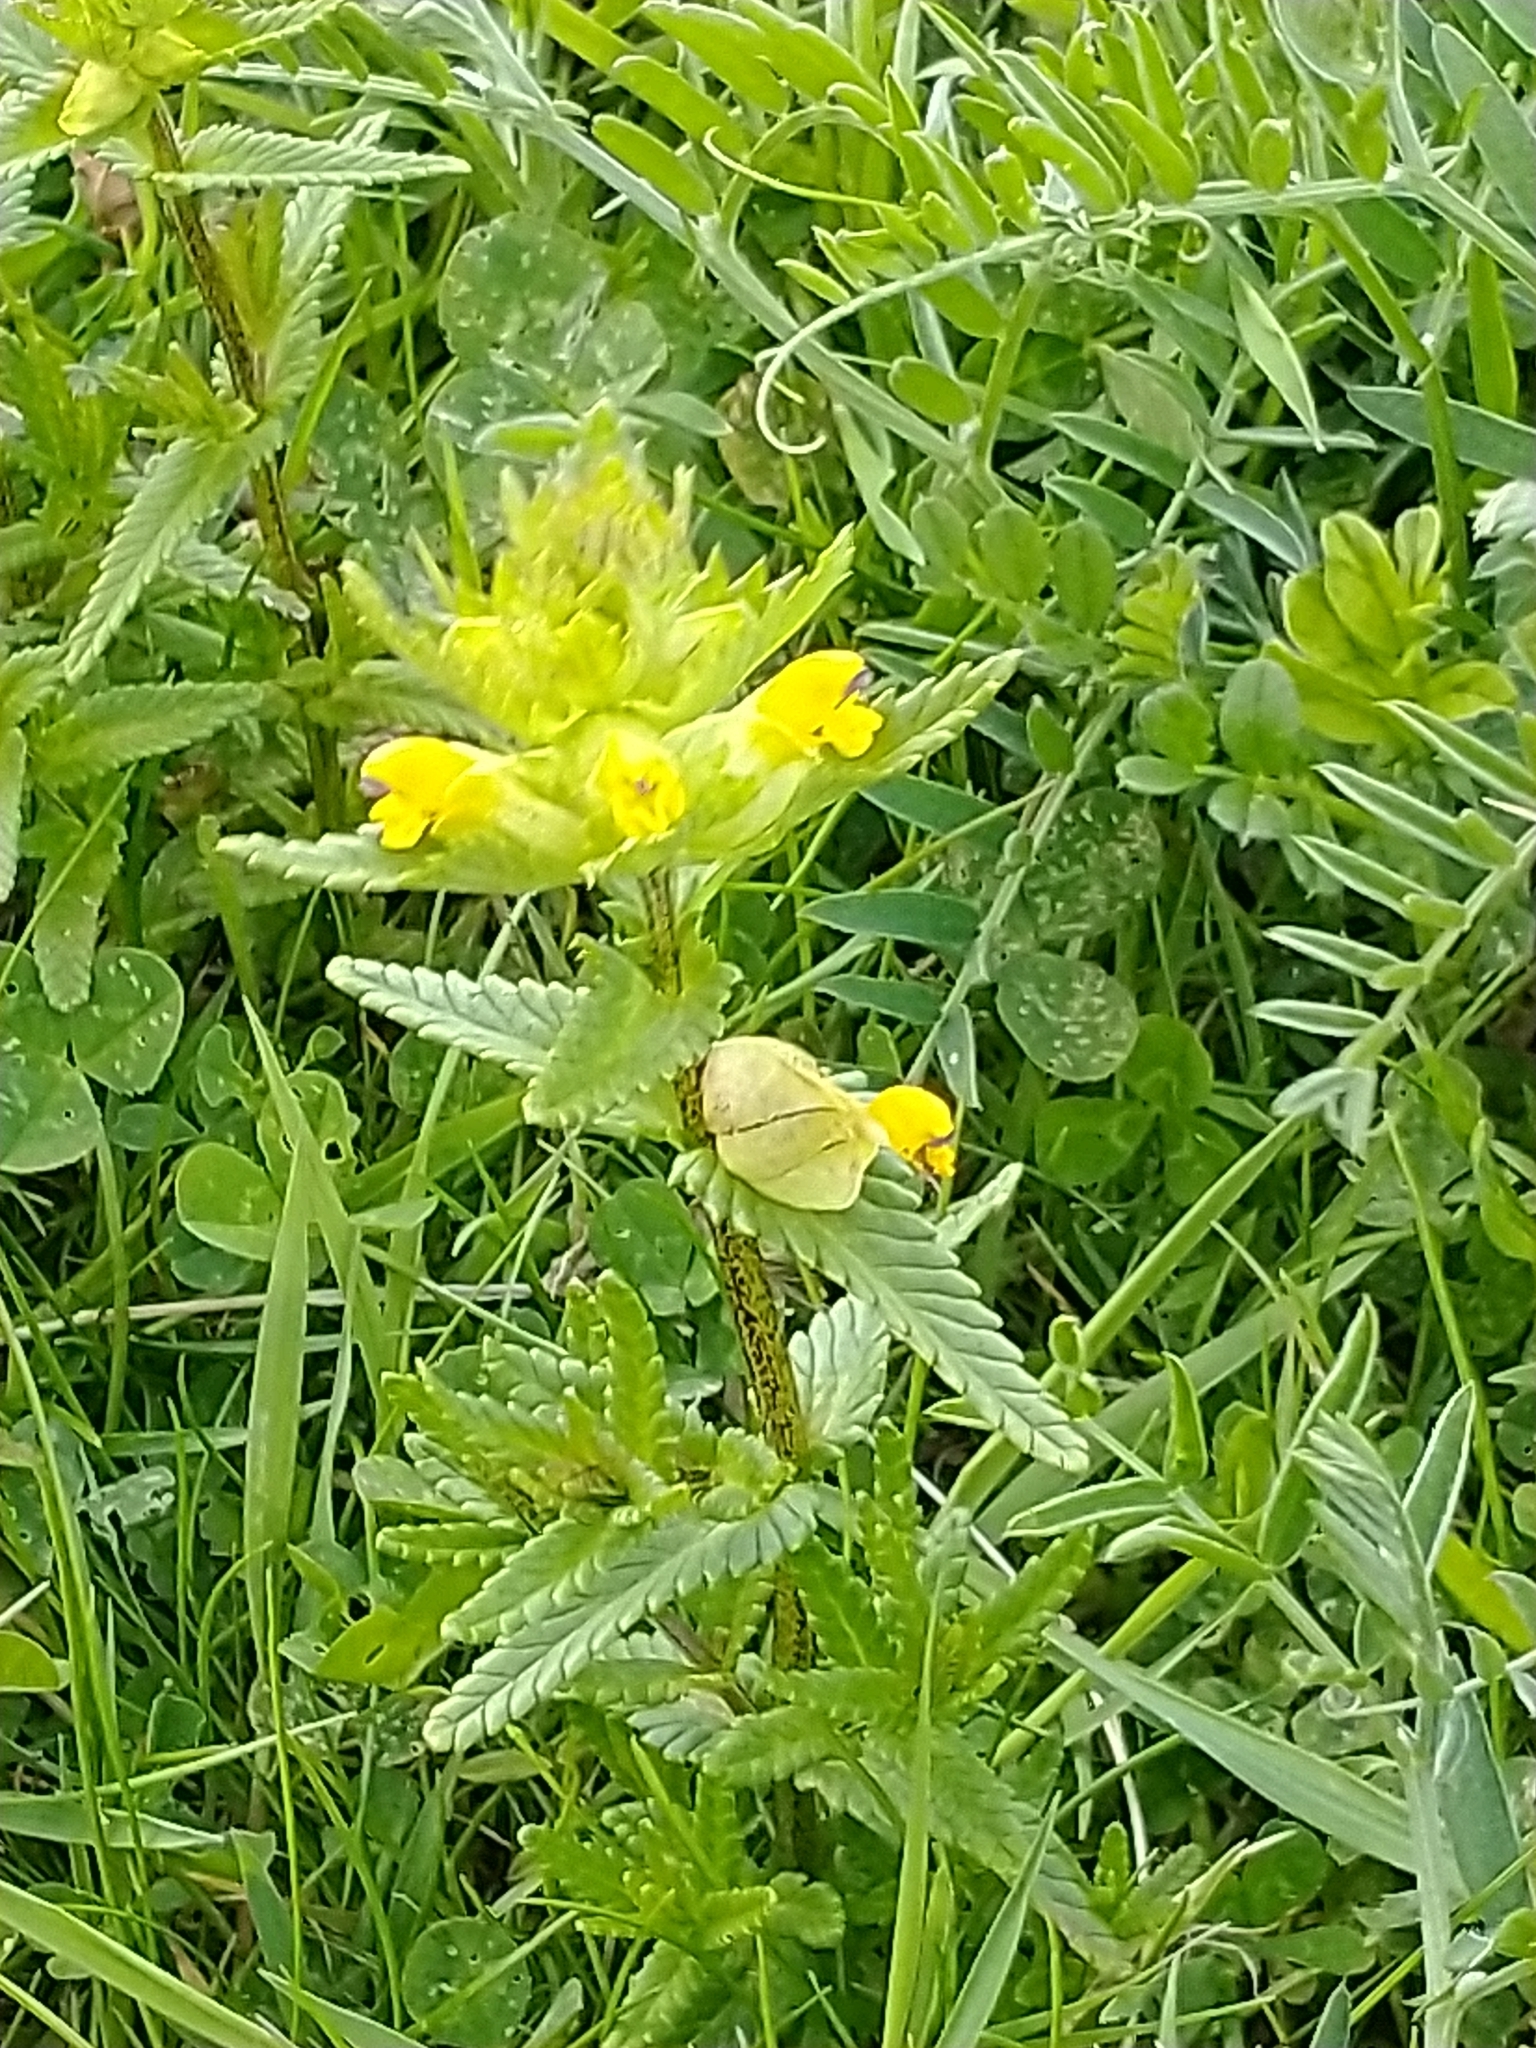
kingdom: Plantae
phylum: Tracheophyta
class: Magnoliopsida
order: Lamiales
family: Orobanchaceae
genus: Rhinanthus
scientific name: Rhinanthus minor
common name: Yellow-rattle
